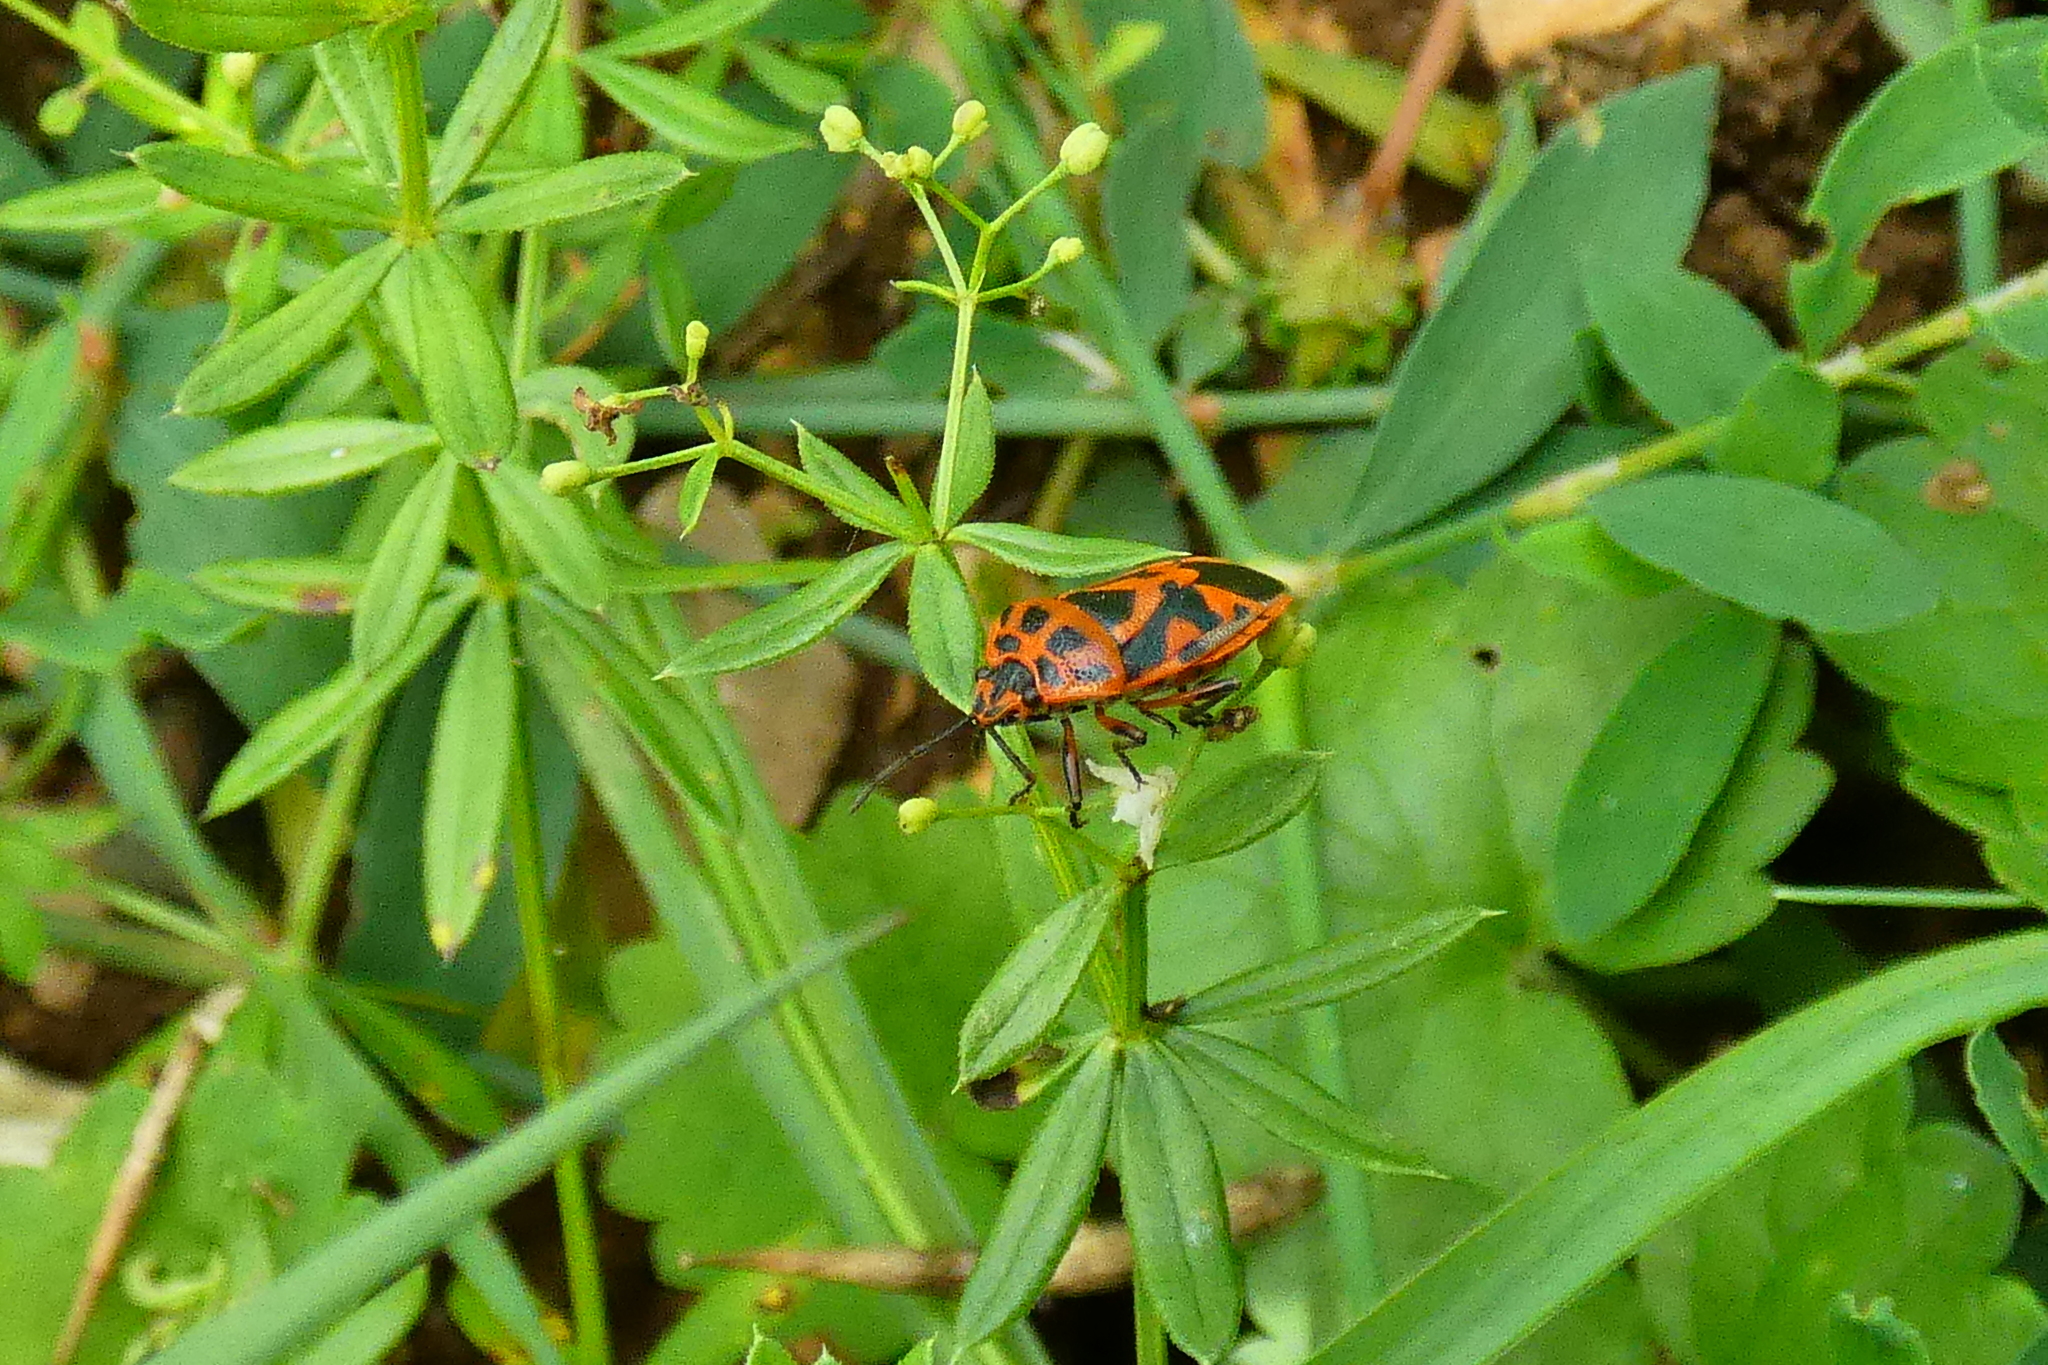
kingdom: Animalia
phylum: Arthropoda
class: Insecta
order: Hemiptera
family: Pentatomidae
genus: Eurydema
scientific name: Eurydema ornata
